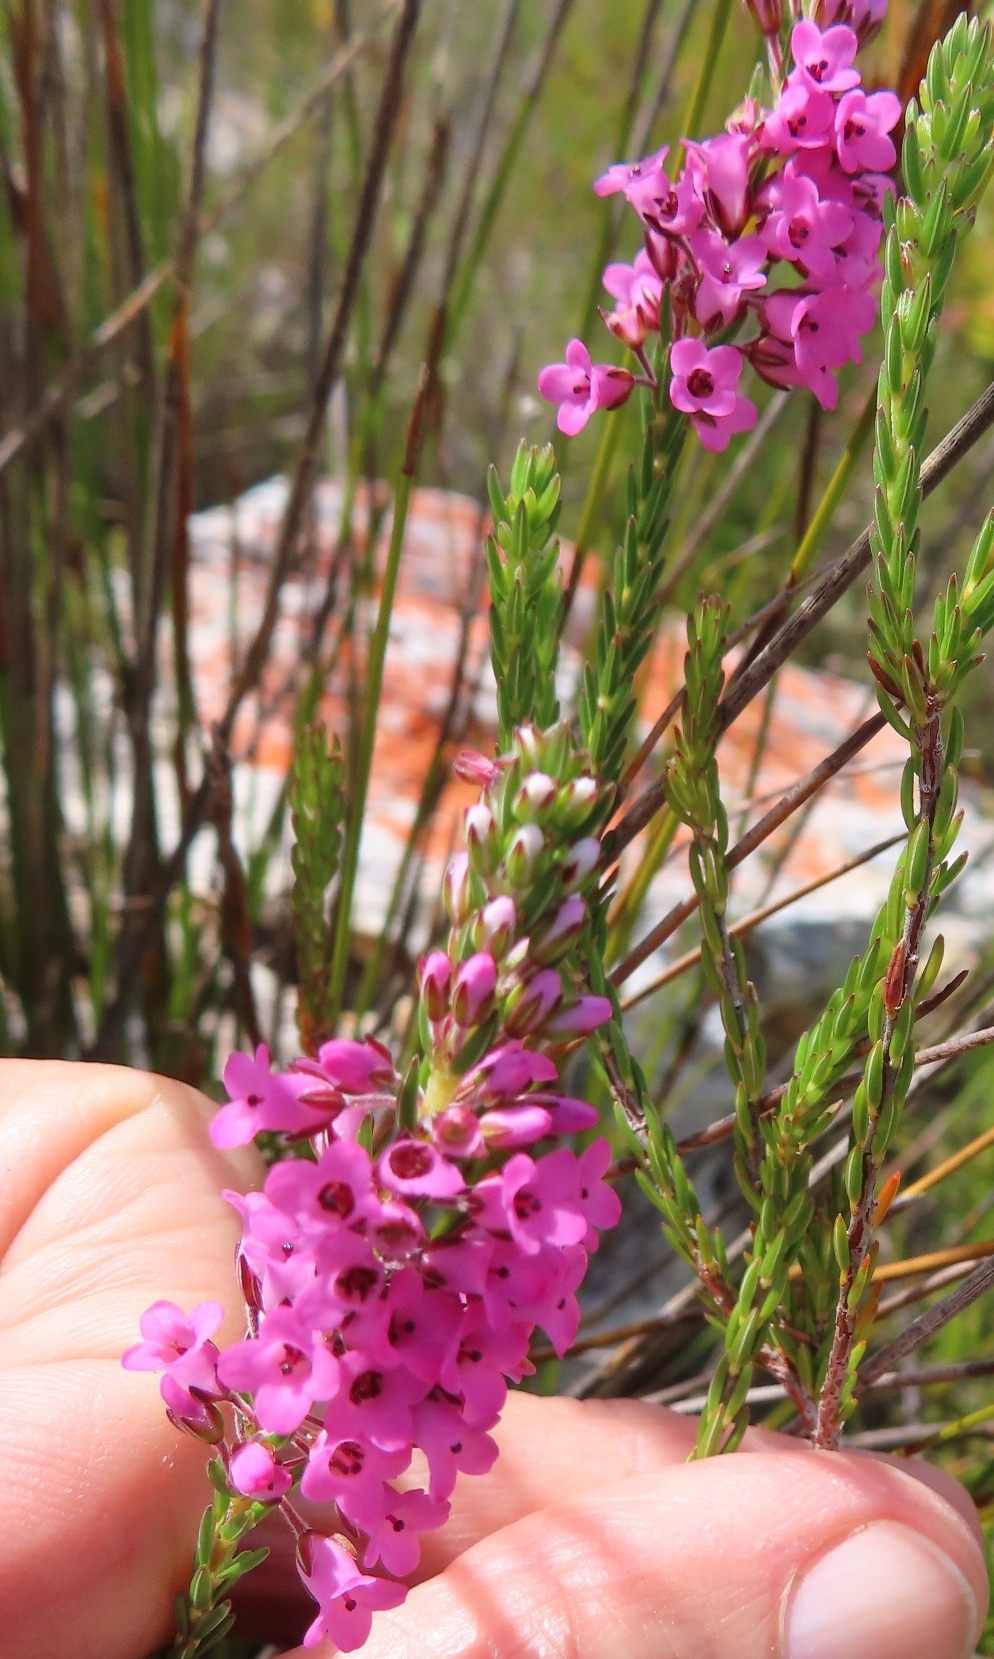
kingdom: Plantae
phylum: Tracheophyta
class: Magnoliopsida
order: Ericales
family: Ericaceae
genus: Erica
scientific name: Erica longiaristata
